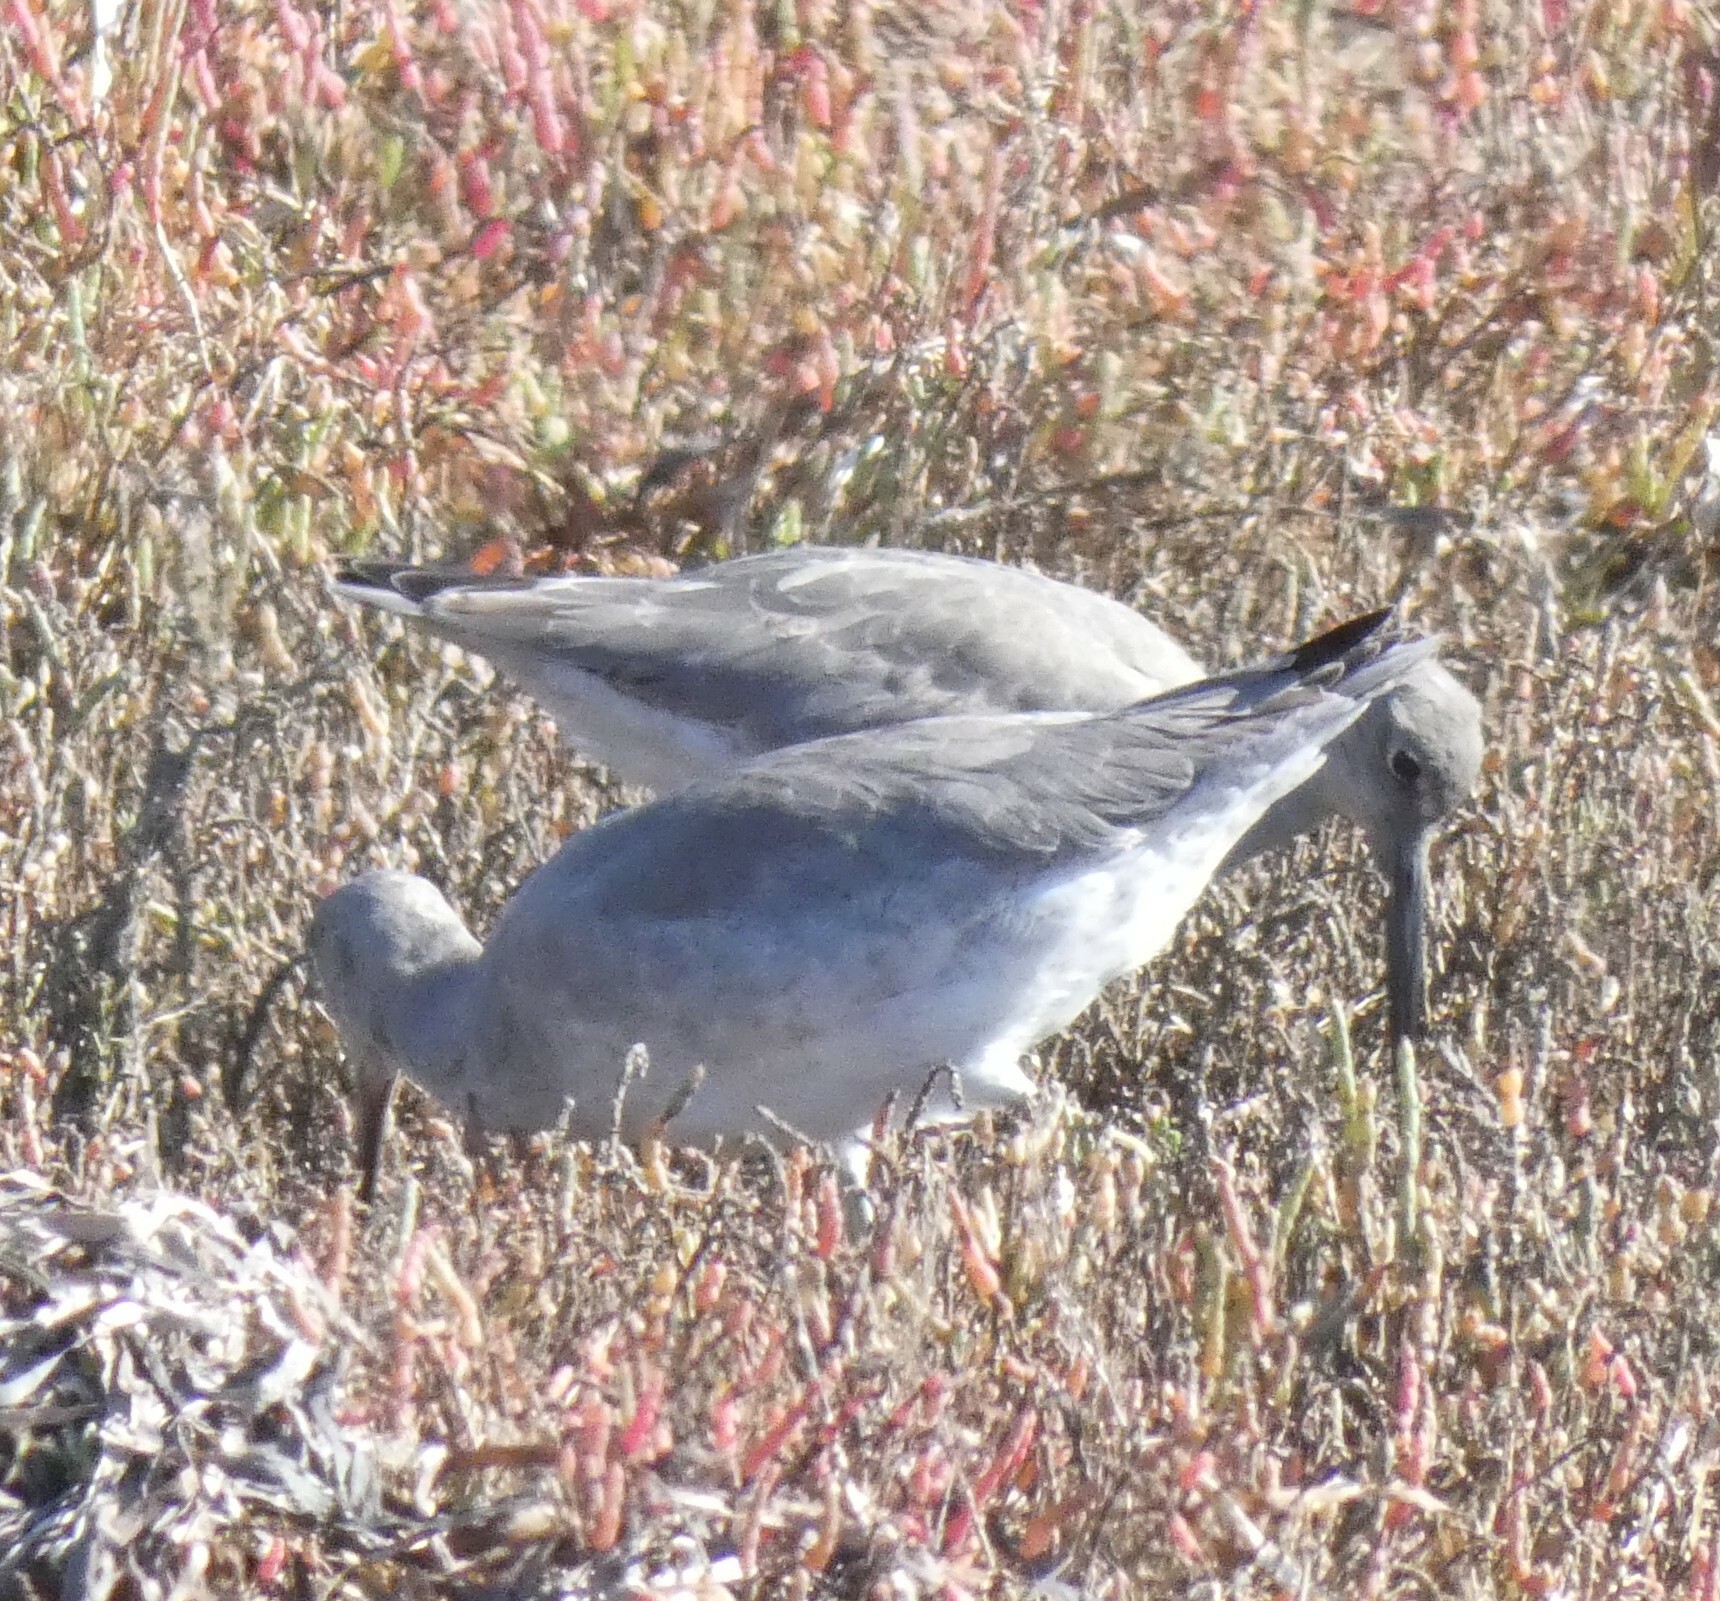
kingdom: Animalia
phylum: Chordata
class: Aves
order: Charadriiformes
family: Scolopacidae
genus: Tringa
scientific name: Tringa semipalmata
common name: Willet
